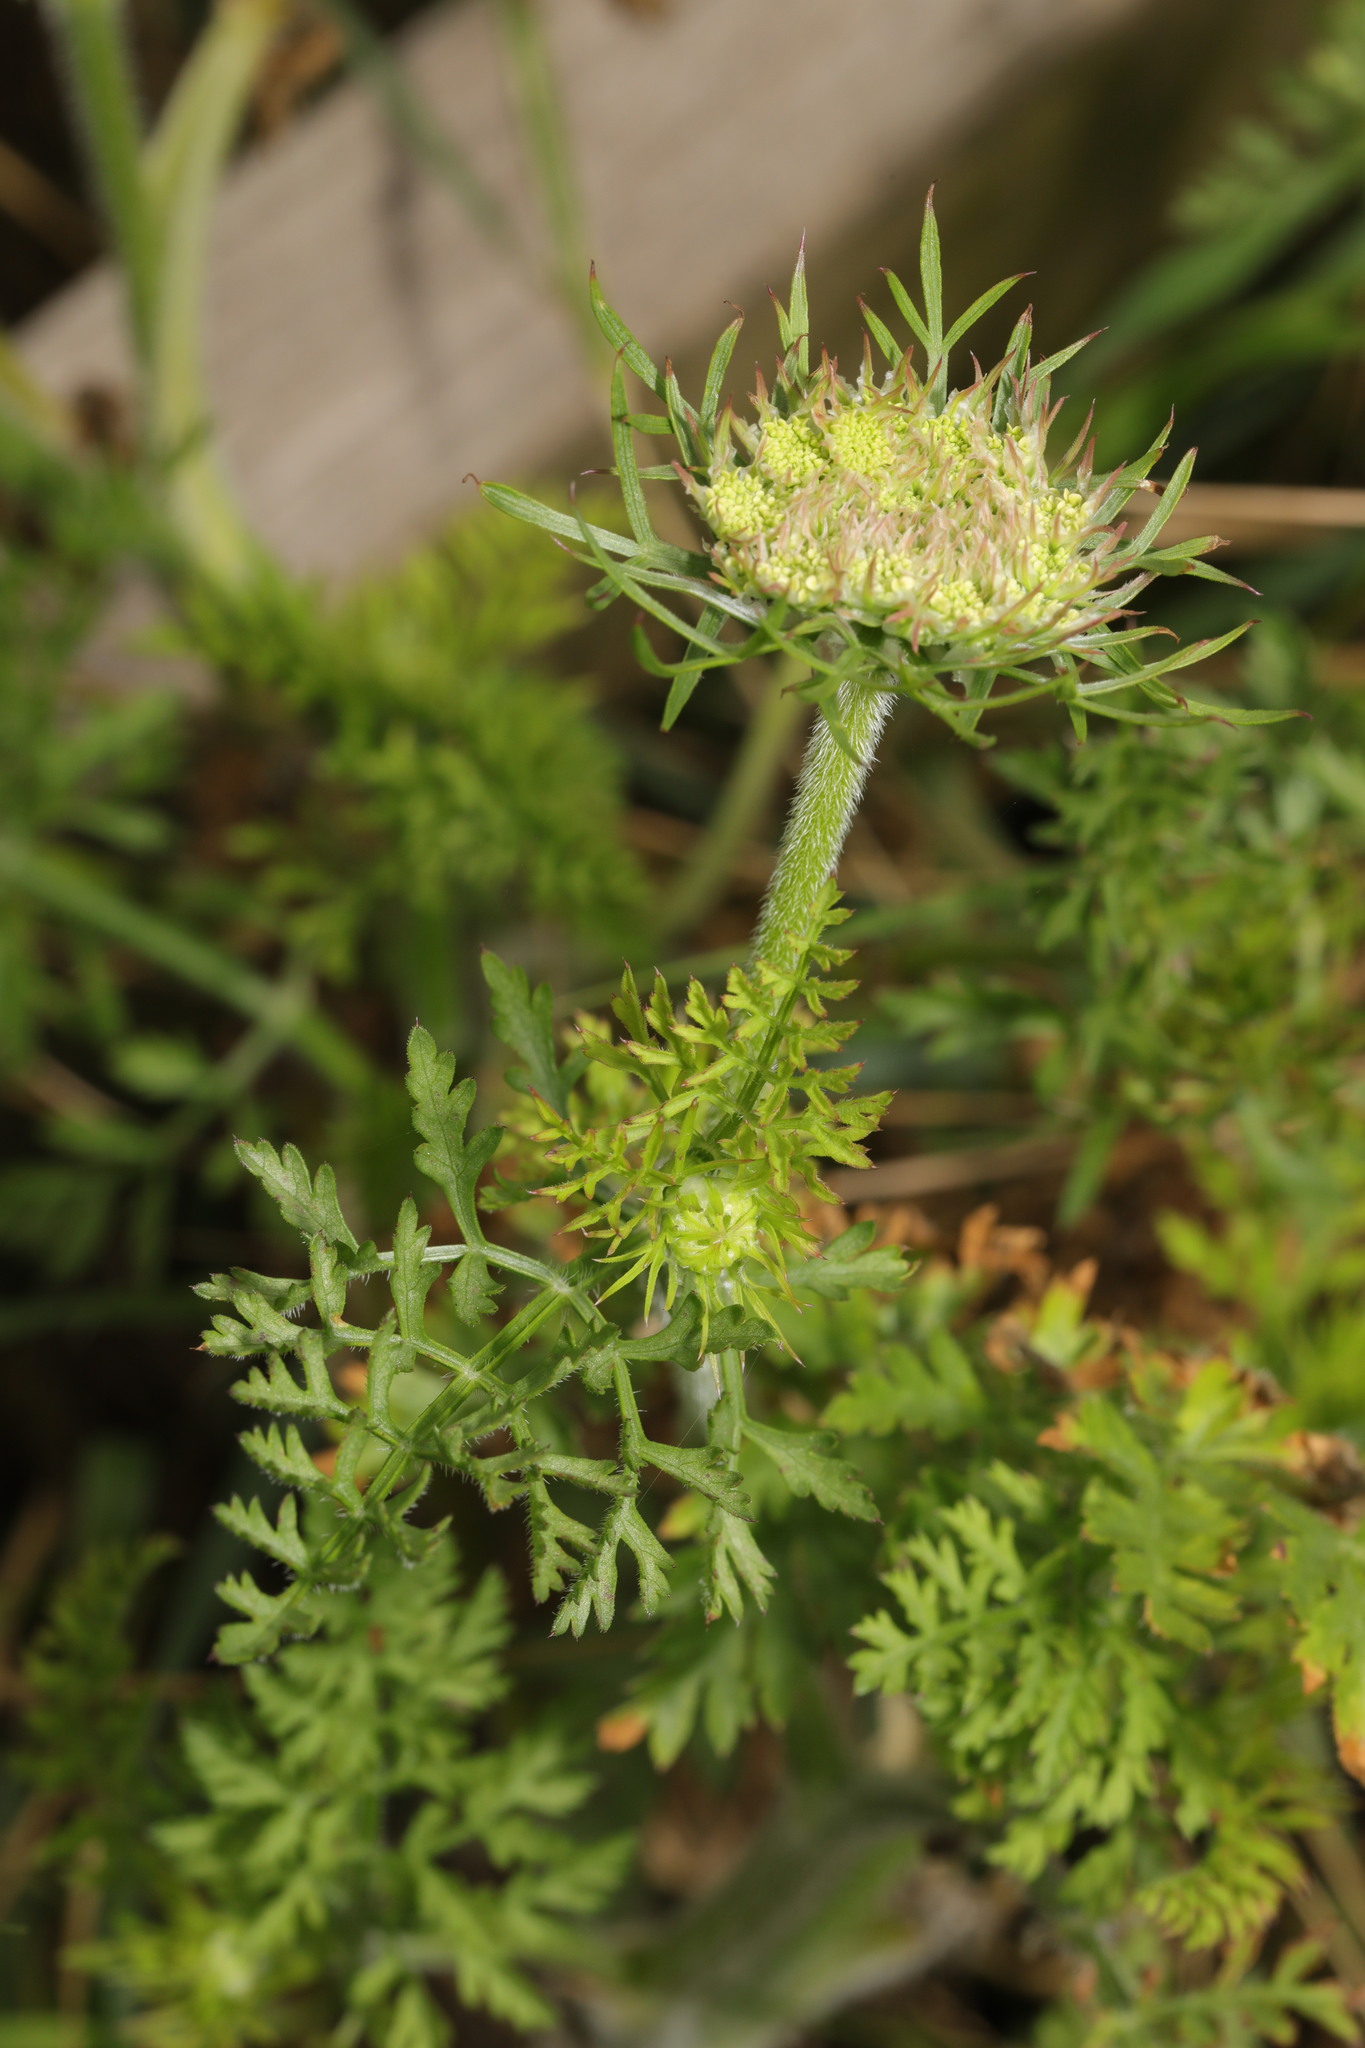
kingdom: Plantae
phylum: Tracheophyta
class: Magnoliopsida
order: Apiales
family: Apiaceae
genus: Daucus
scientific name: Daucus carota
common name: Wild carrot
